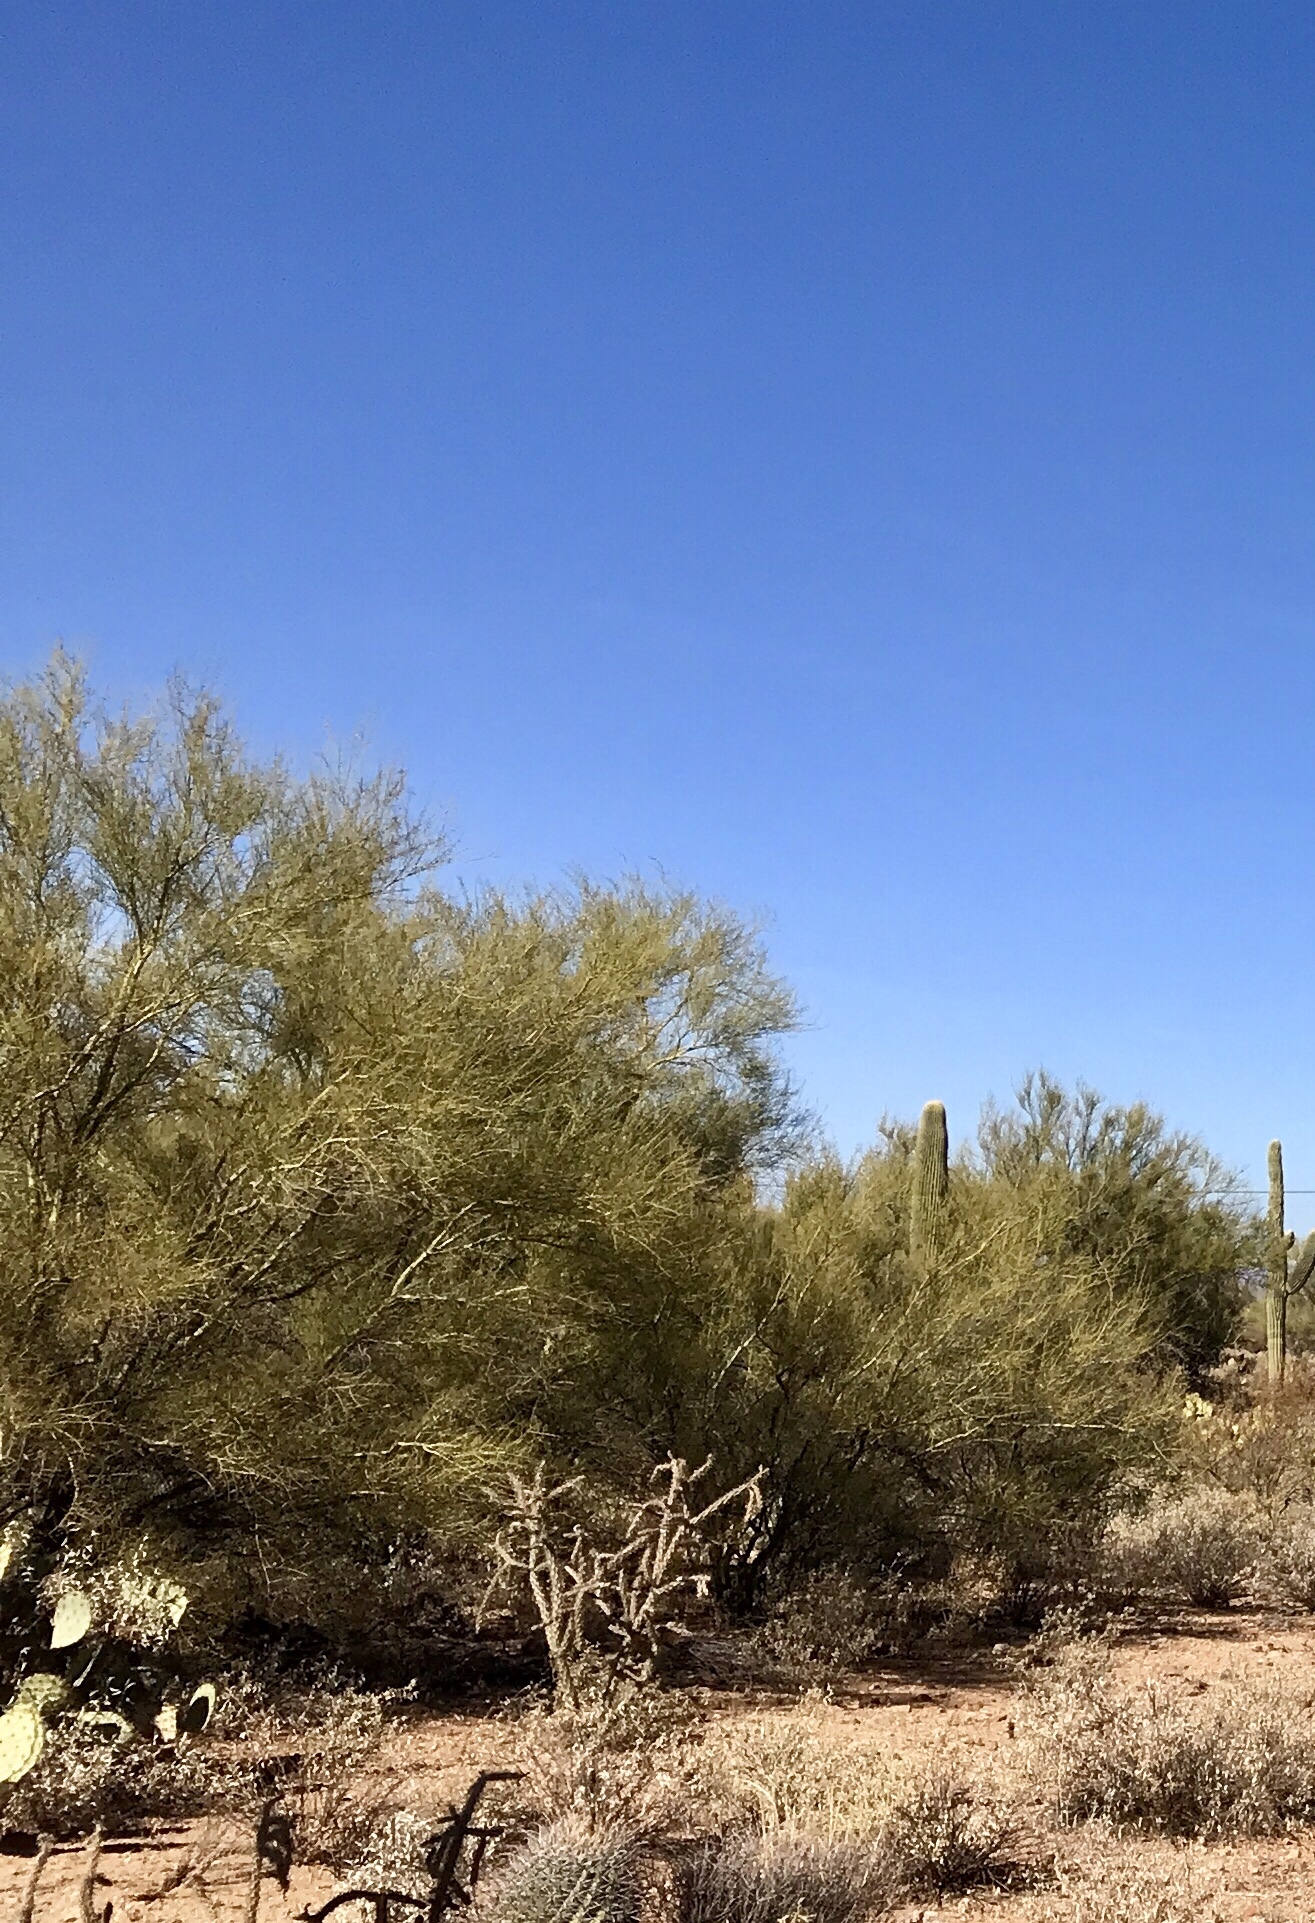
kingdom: Plantae
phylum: Tracheophyta
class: Magnoliopsida
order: Fabales
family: Fabaceae
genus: Parkinsonia
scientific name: Parkinsonia microphylla
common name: Yellow paloverde
